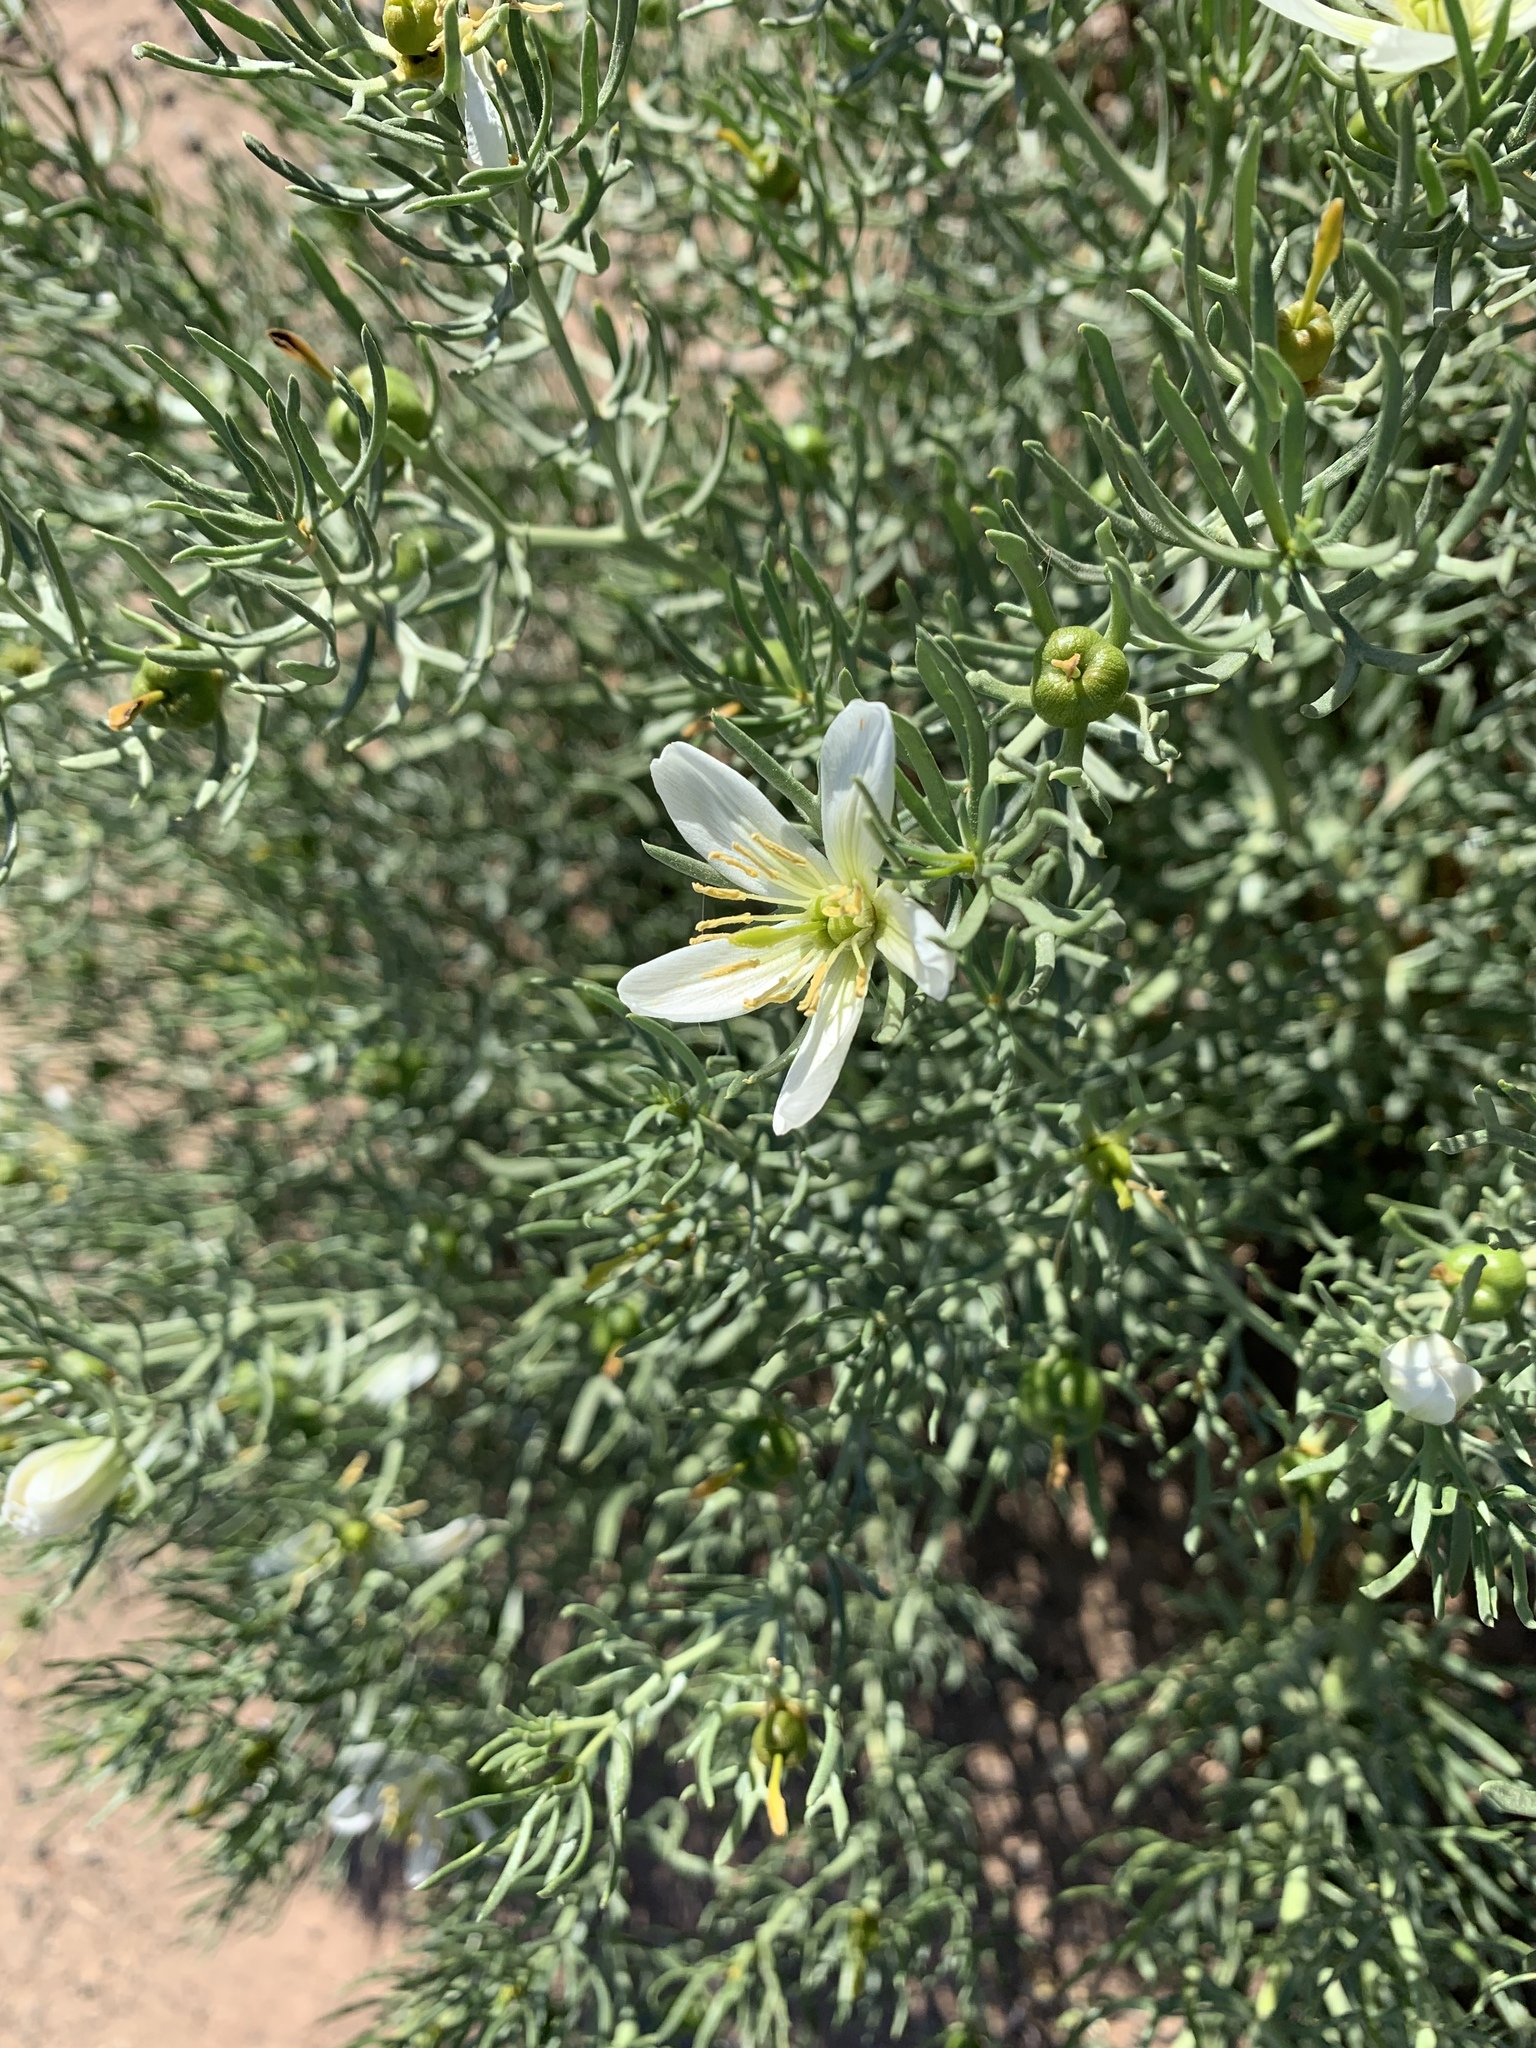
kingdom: Plantae
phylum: Tracheophyta
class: Magnoliopsida
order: Sapindales
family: Tetradiclidaceae
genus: Peganum
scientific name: Peganum harmala
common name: Harmal peganum
